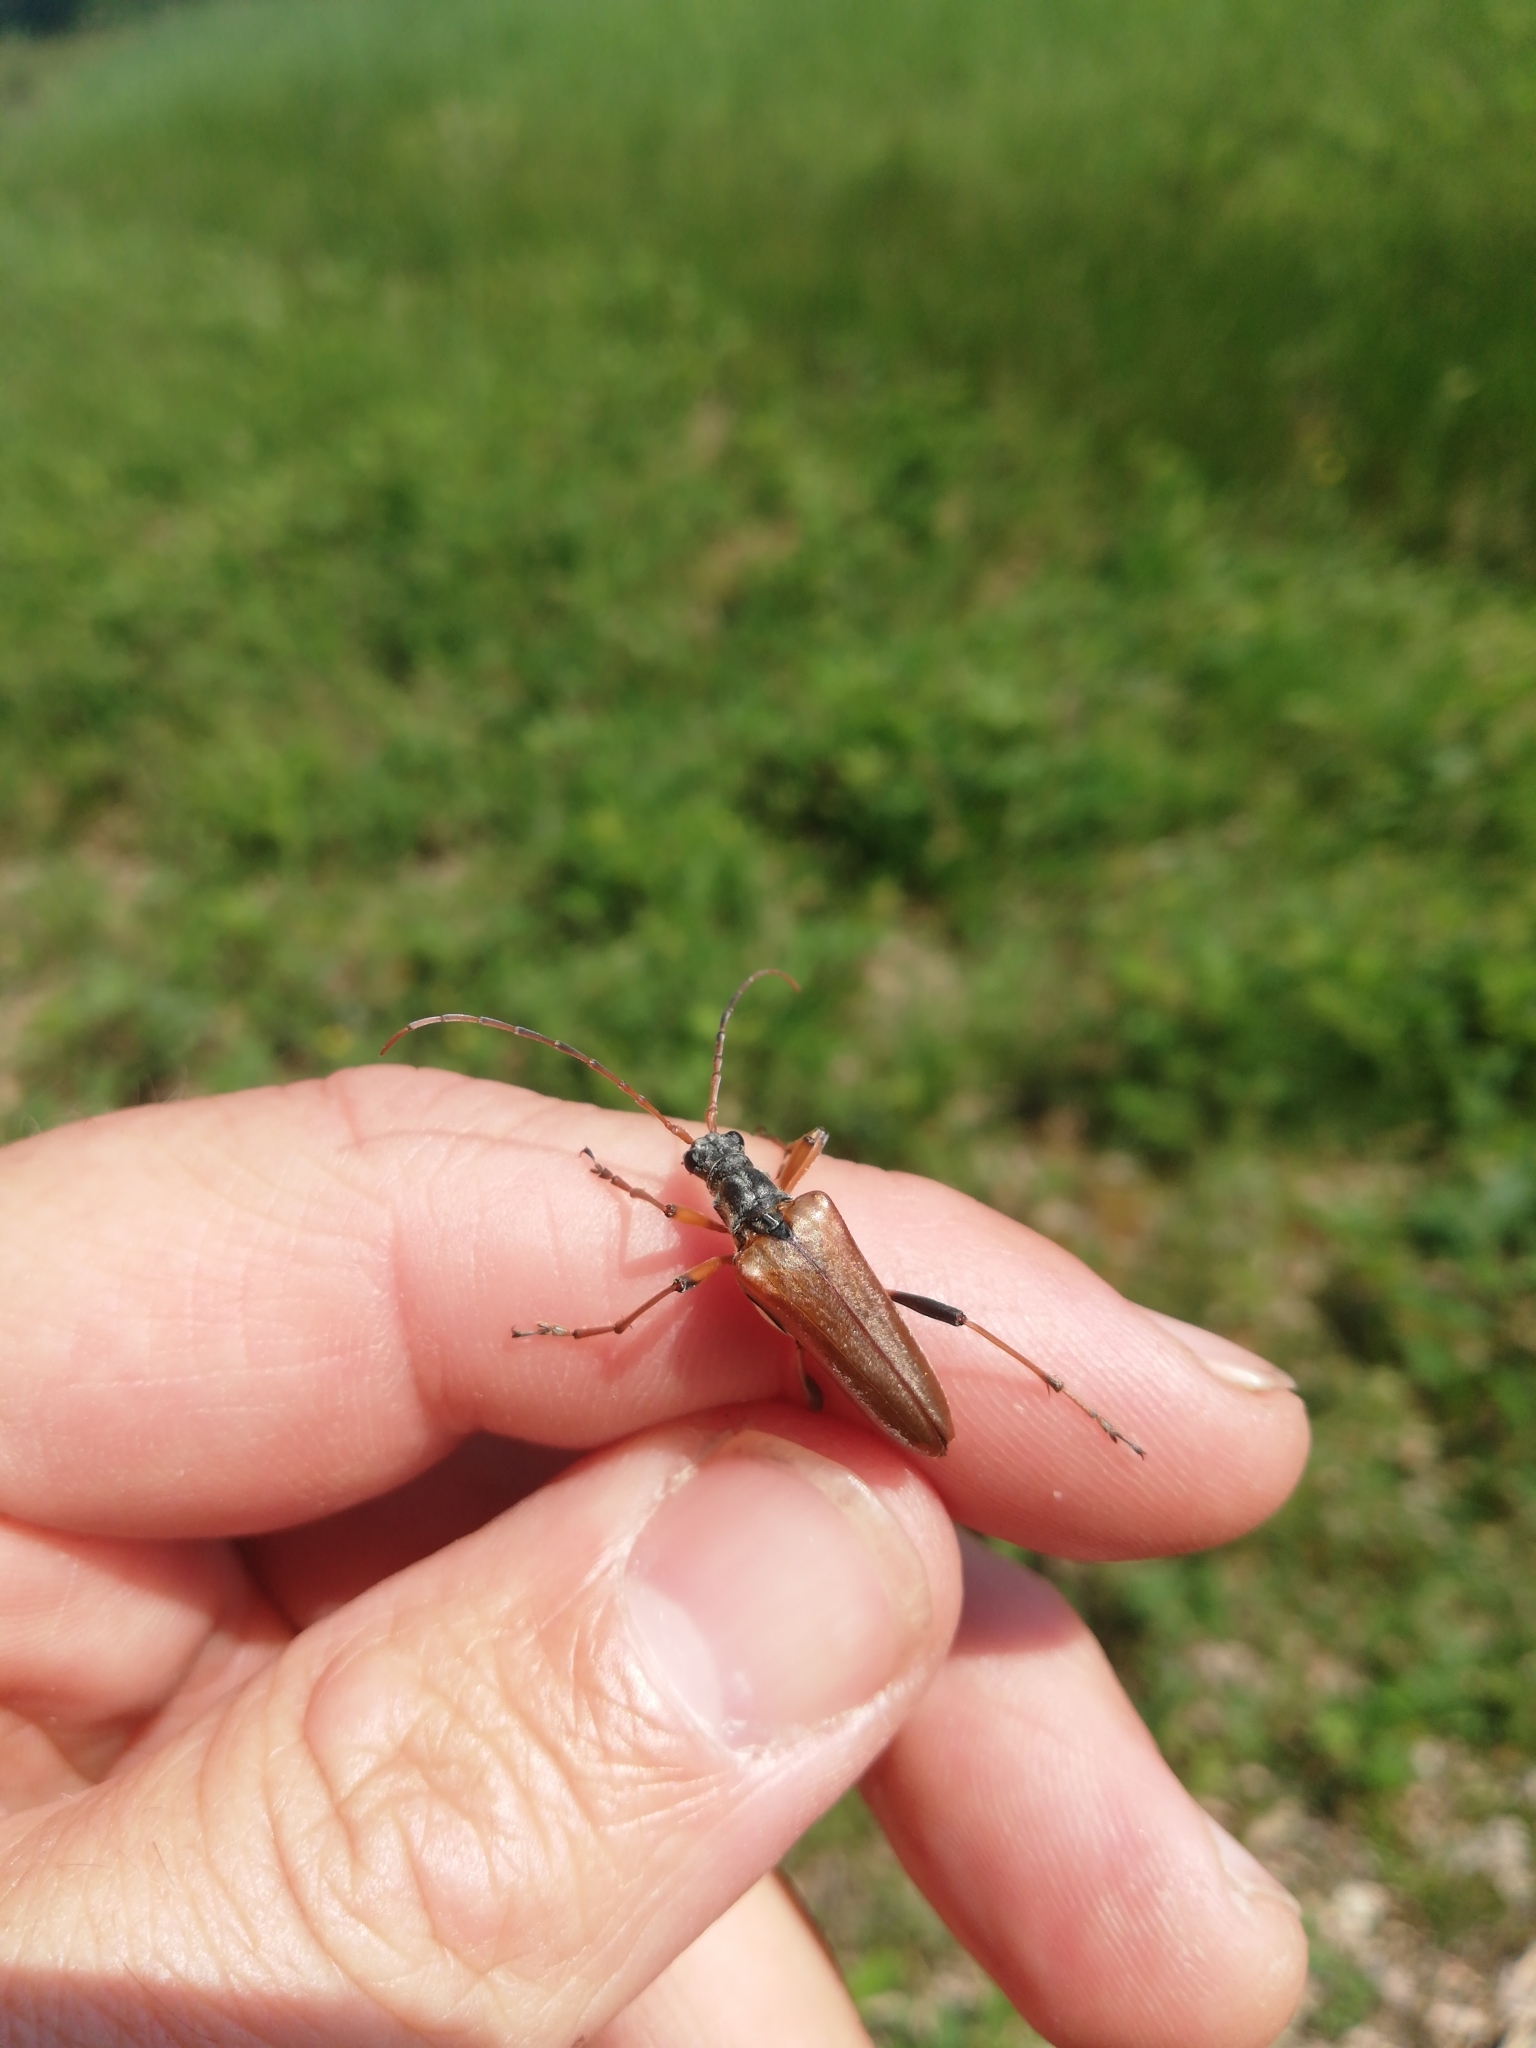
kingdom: Animalia
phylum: Arthropoda
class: Insecta
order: Coleoptera
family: Cerambycidae
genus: Stenocorus
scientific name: Stenocorus meridianus
